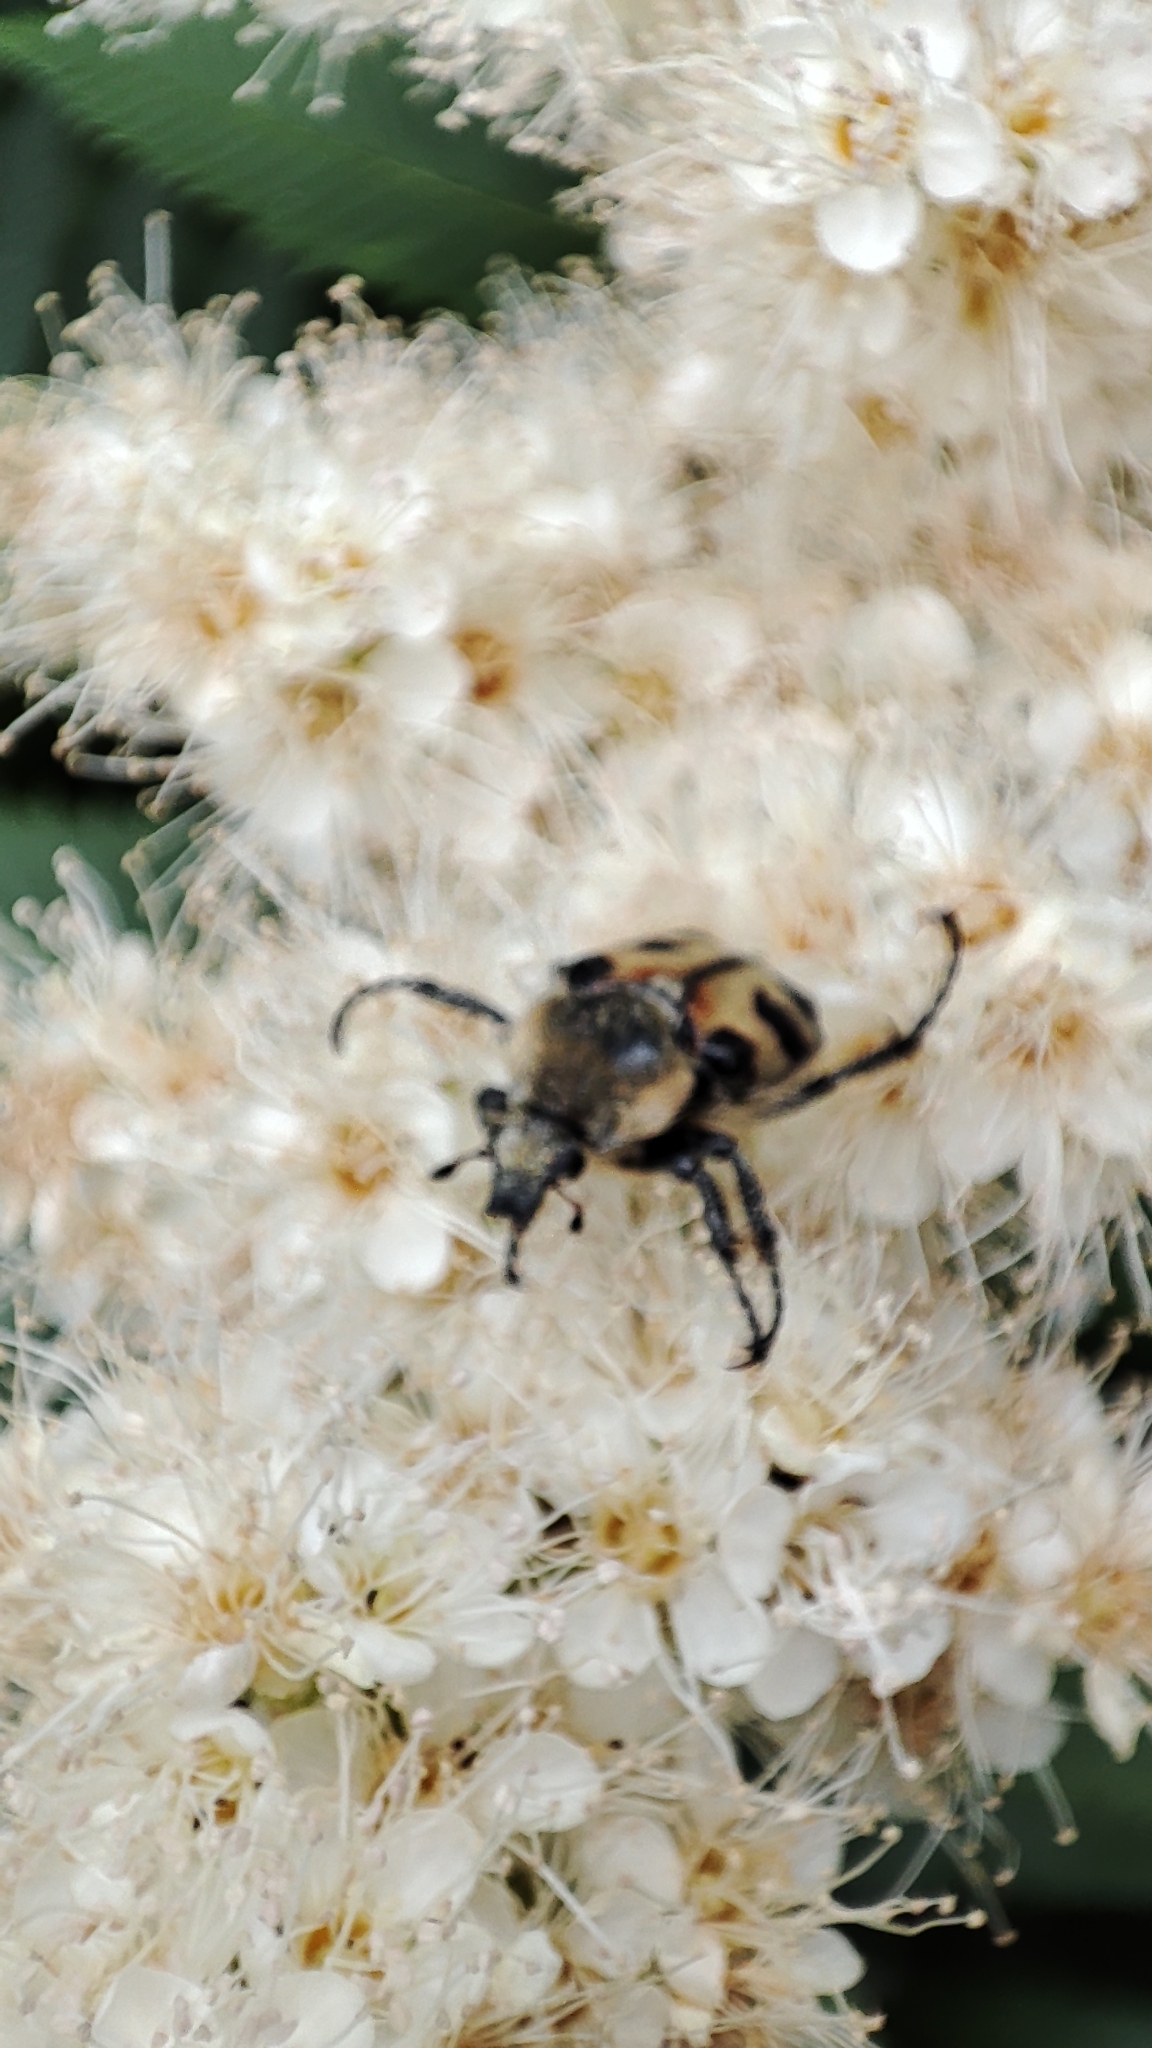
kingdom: Animalia
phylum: Arthropoda
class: Insecta
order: Coleoptera
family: Scarabaeidae
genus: Trichius
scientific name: Trichius fasciatus
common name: Bee beetle
